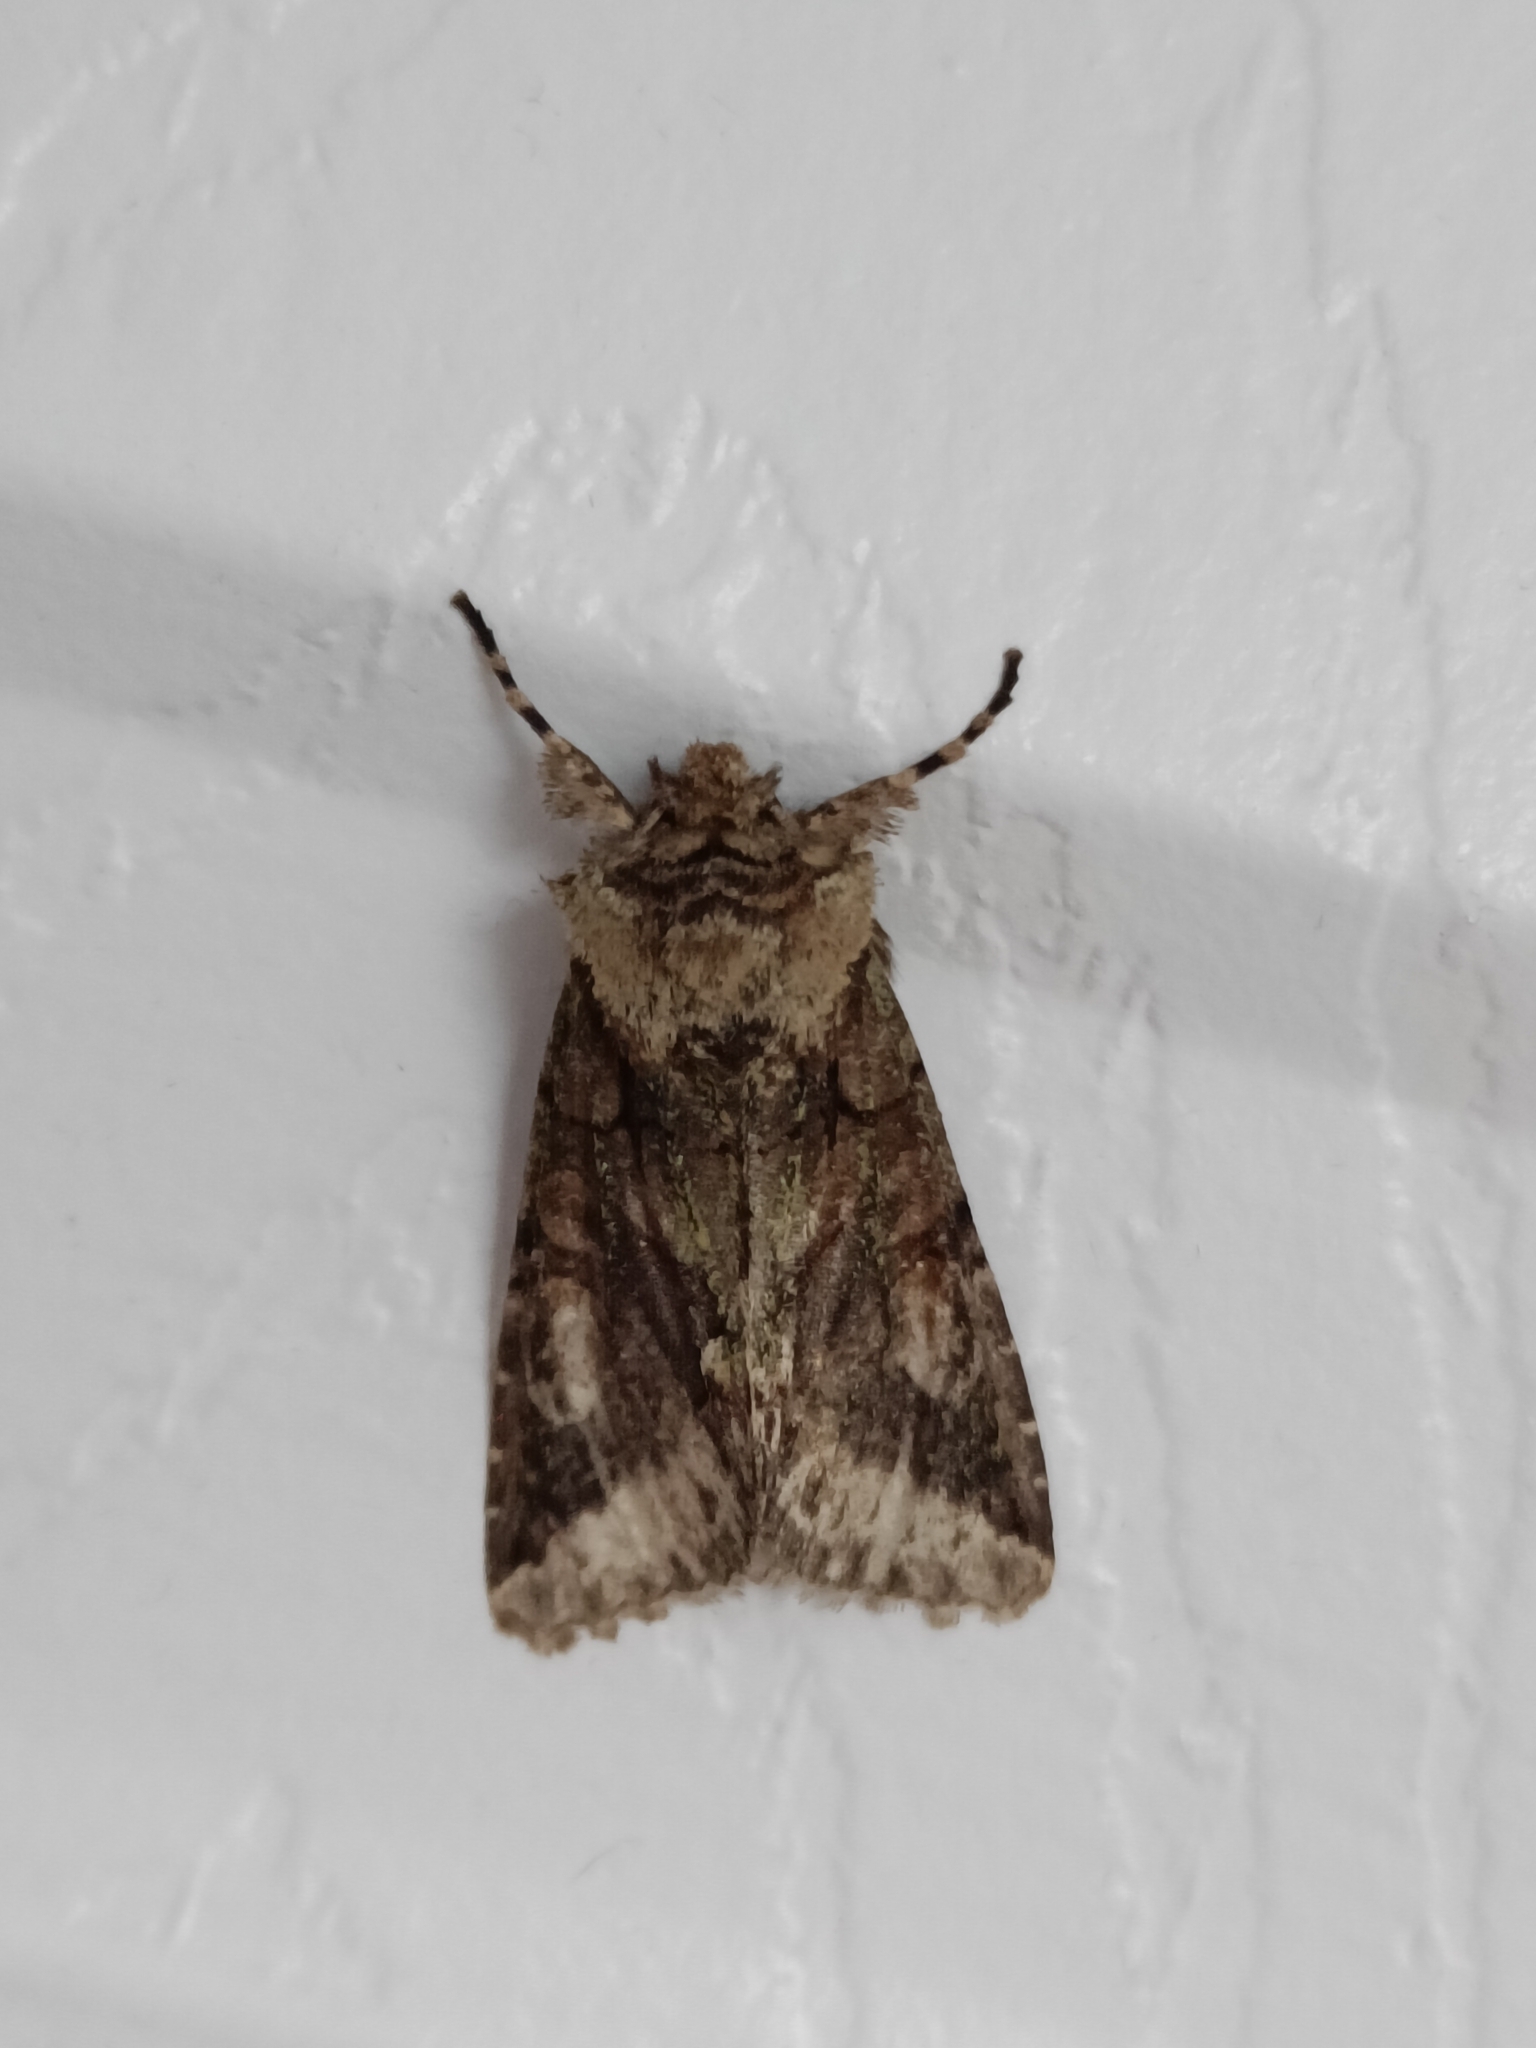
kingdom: Animalia
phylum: Arthropoda
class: Insecta
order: Lepidoptera
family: Noctuidae
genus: Allophyes
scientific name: Allophyes oxyacanthae
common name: Green-brindled crescent
